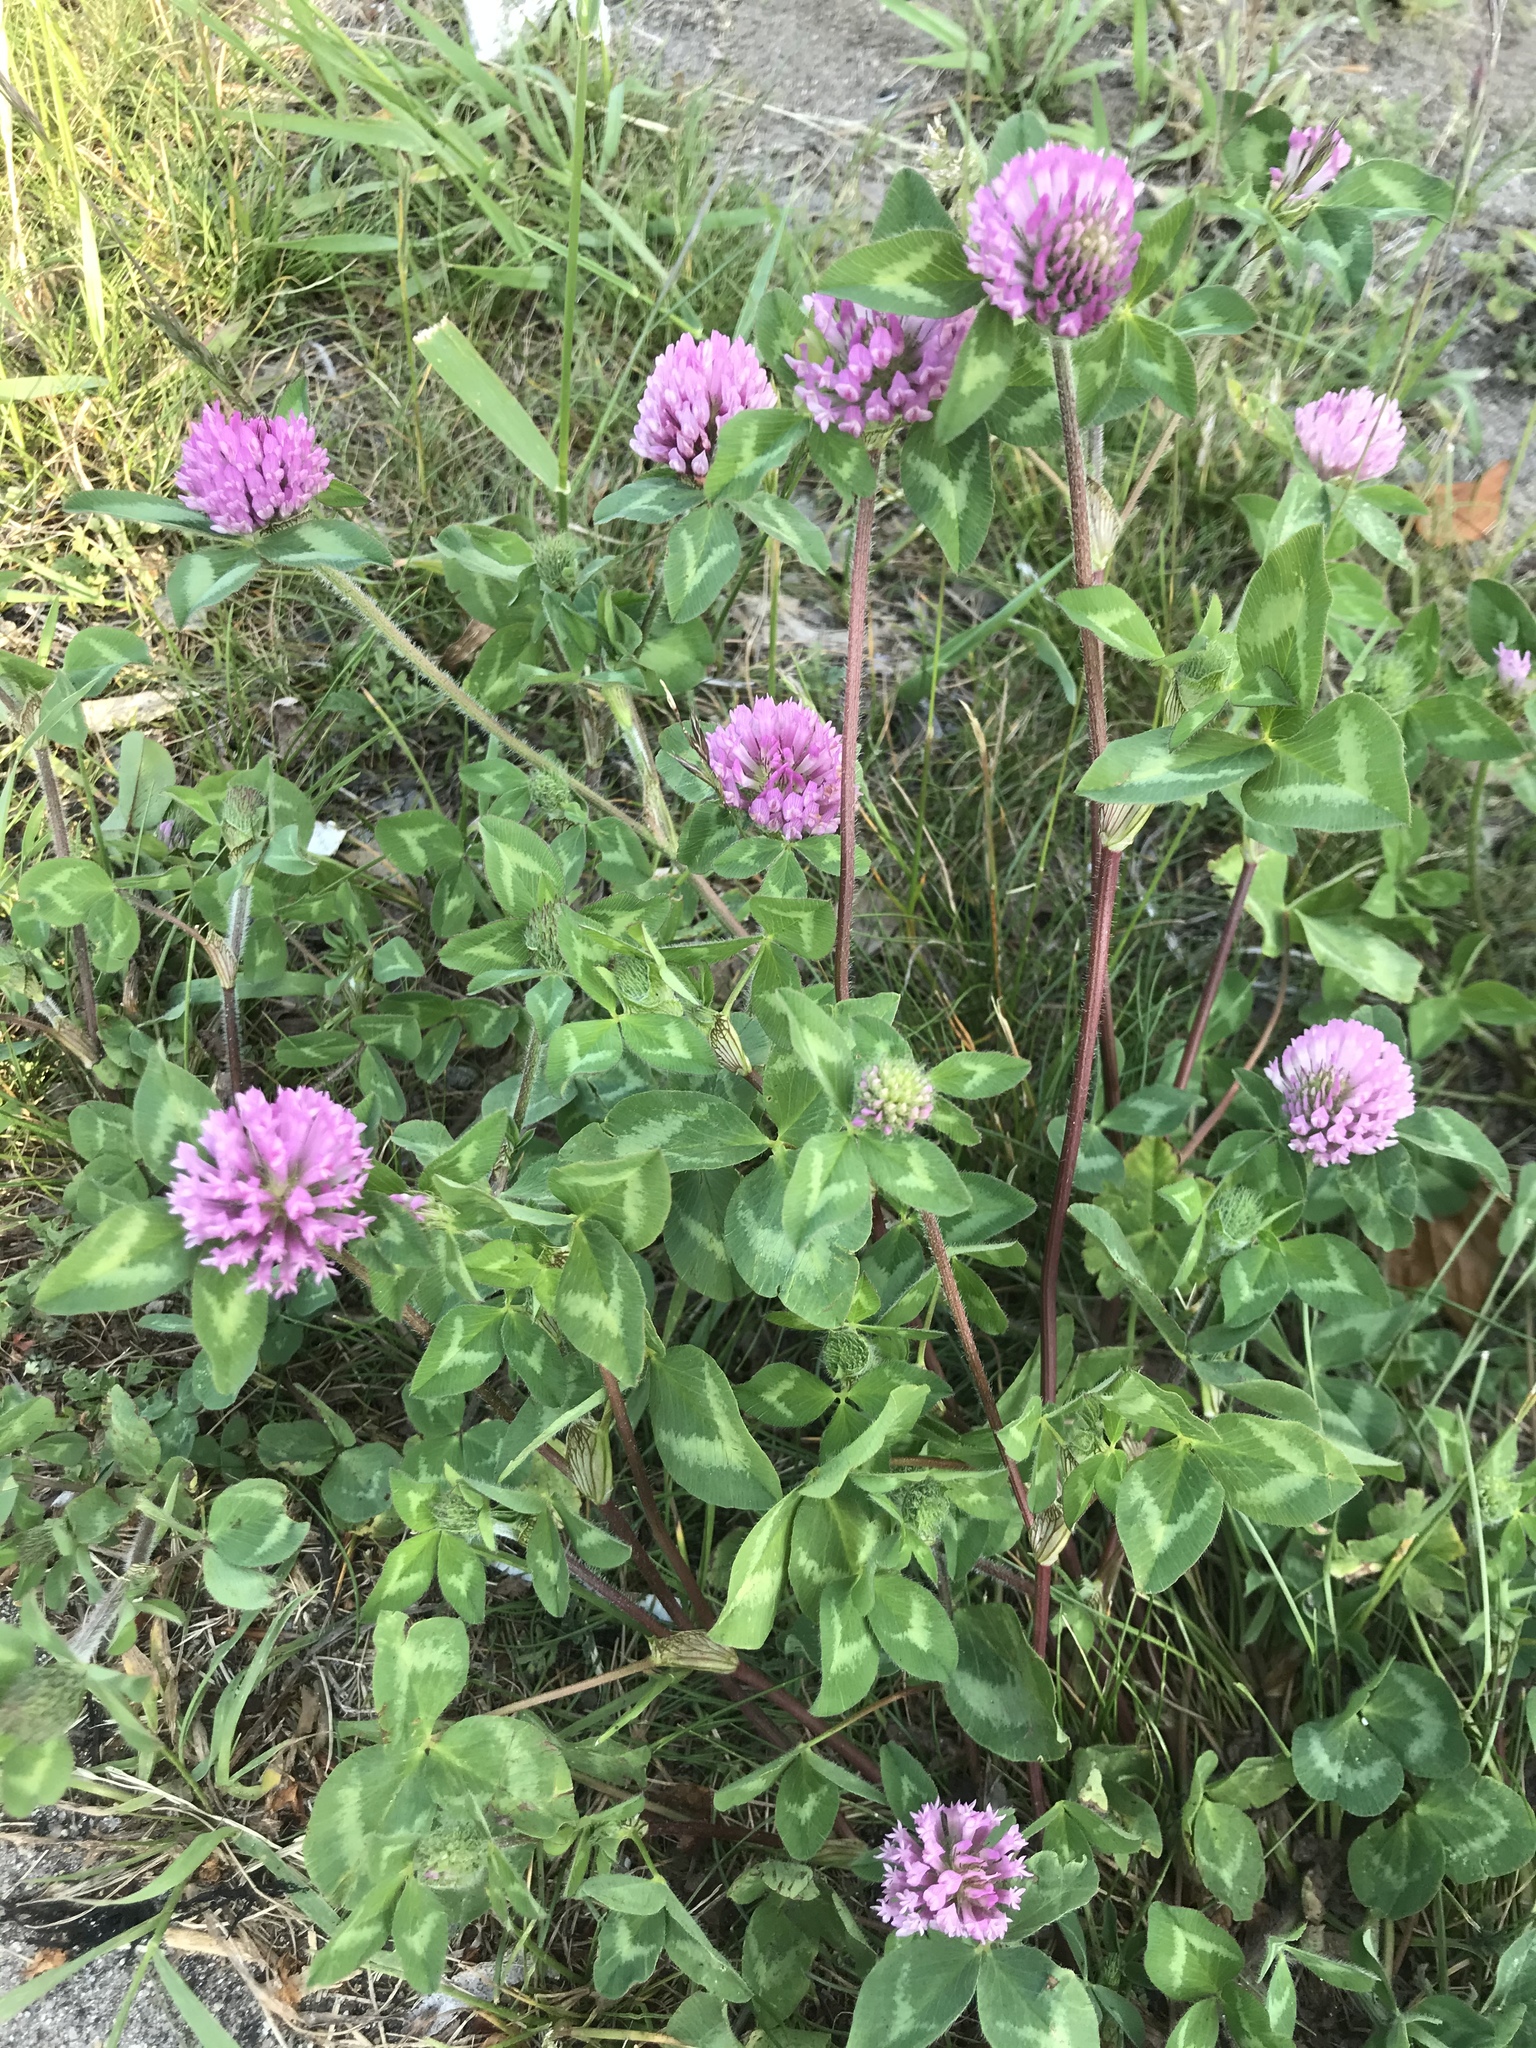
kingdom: Plantae
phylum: Tracheophyta
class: Magnoliopsida
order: Fabales
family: Fabaceae
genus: Trifolium
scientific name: Trifolium pratense
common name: Red clover
